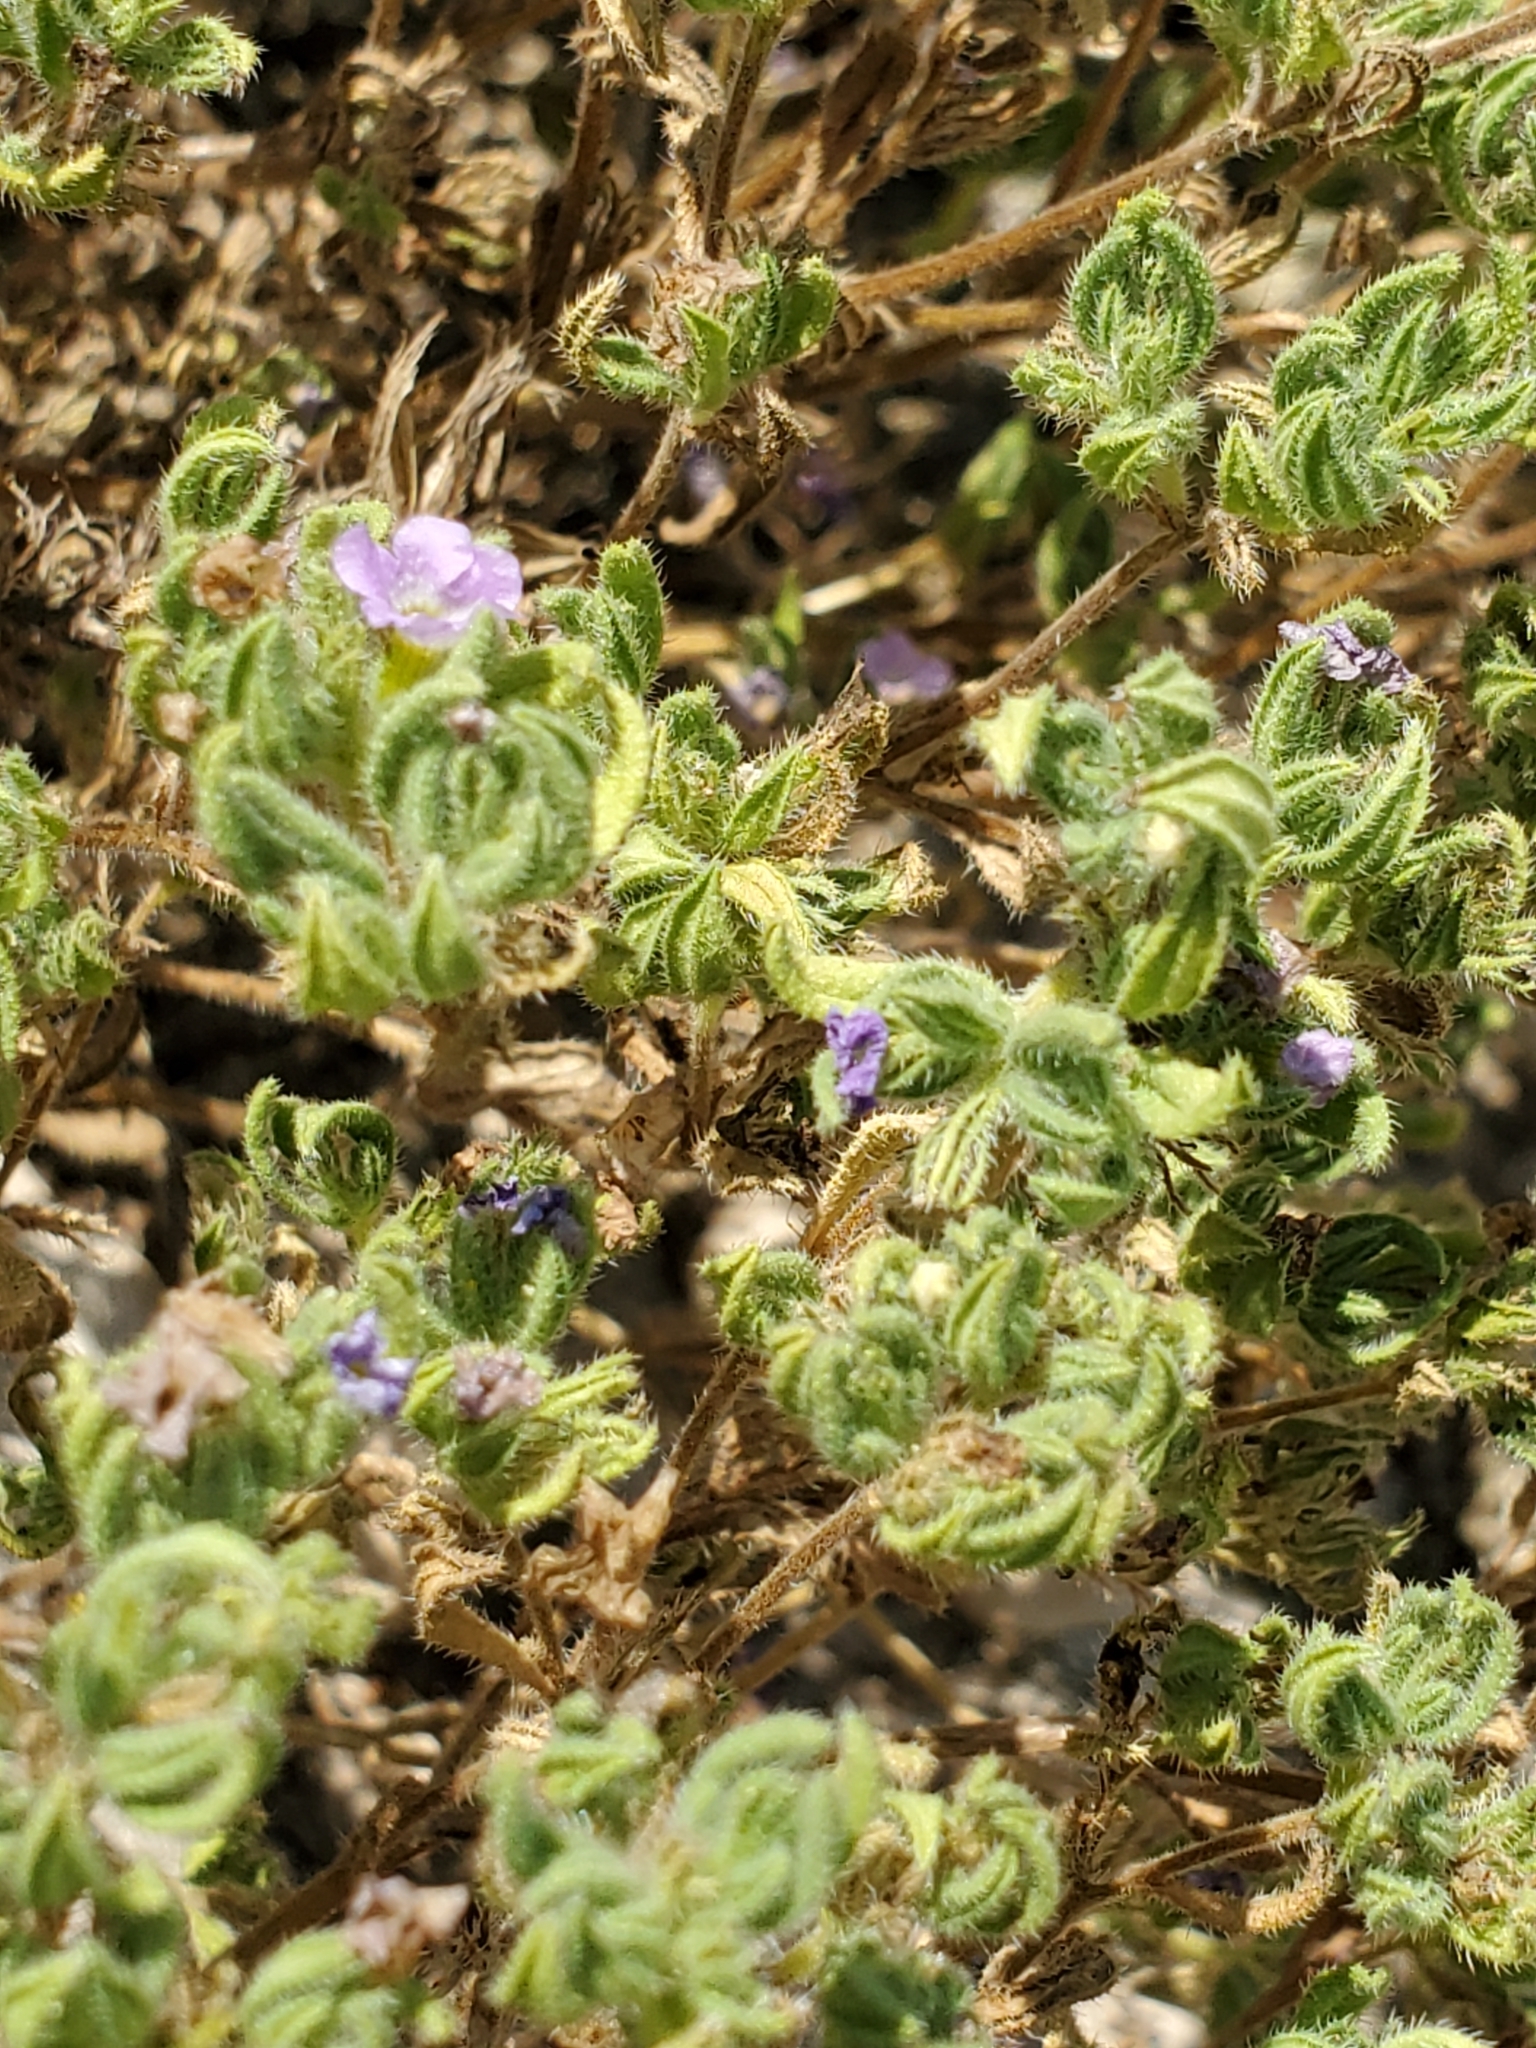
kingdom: Plantae
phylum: Tracheophyta
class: Magnoliopsida
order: Boraginales
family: Namaceae
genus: Nama
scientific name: Nama hispida
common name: Bristly nama
